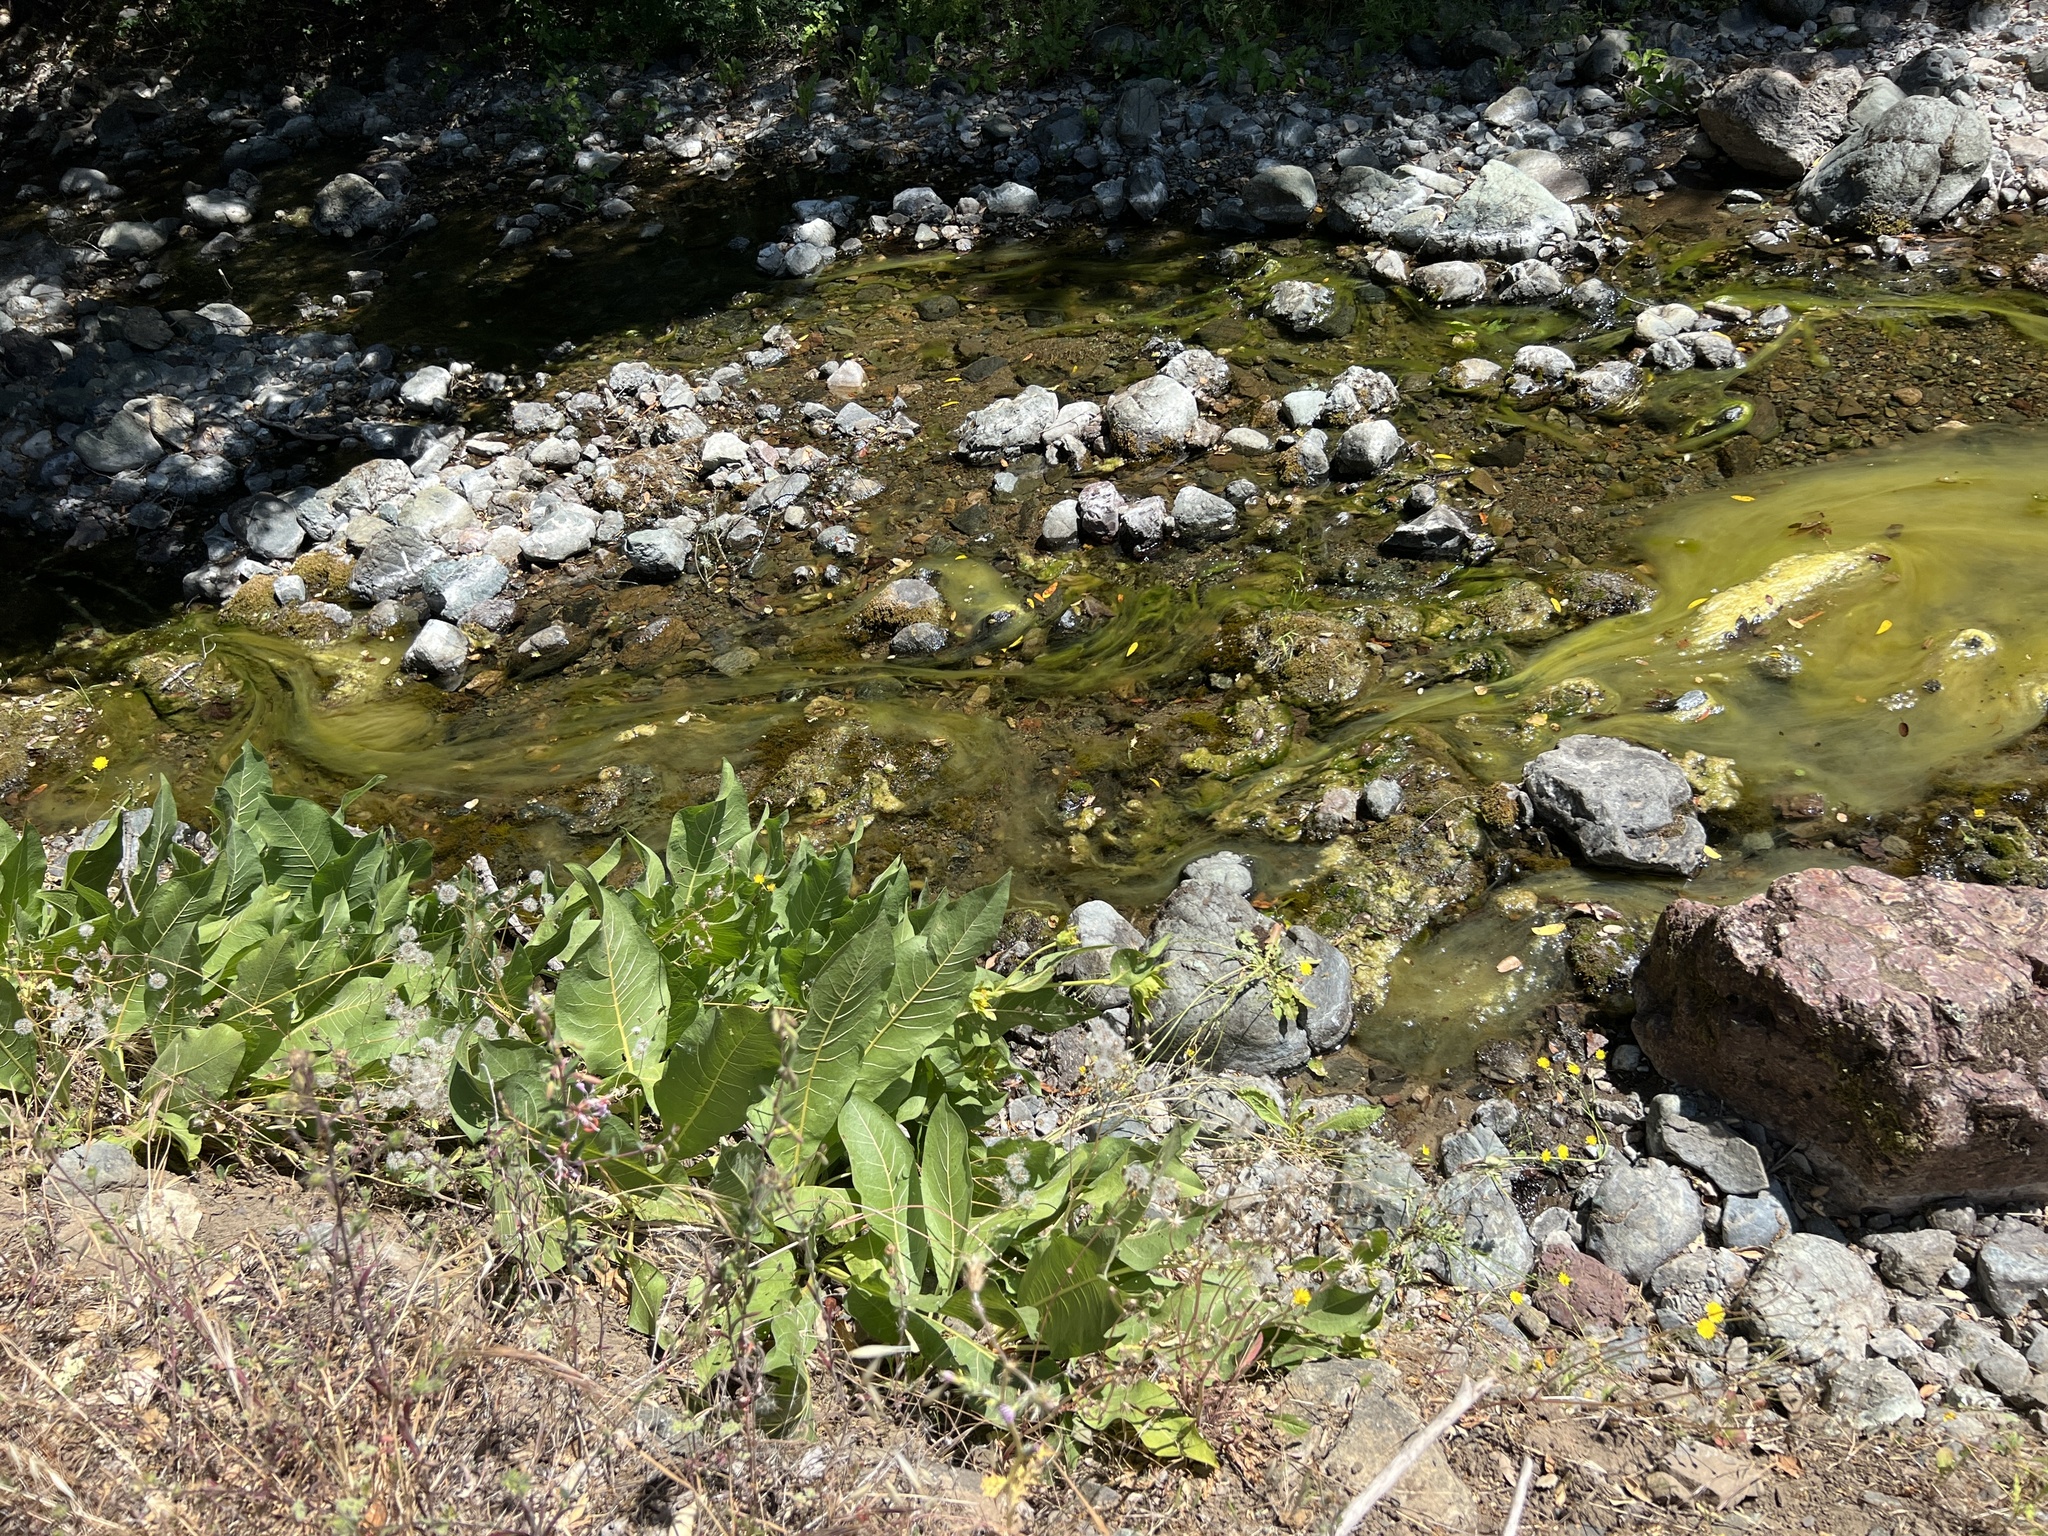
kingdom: Plantae
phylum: Tracheophyta
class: Magnoliopsida
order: Asterales
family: Asteraceae
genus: Wyethia
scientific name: Wyethia glabra
